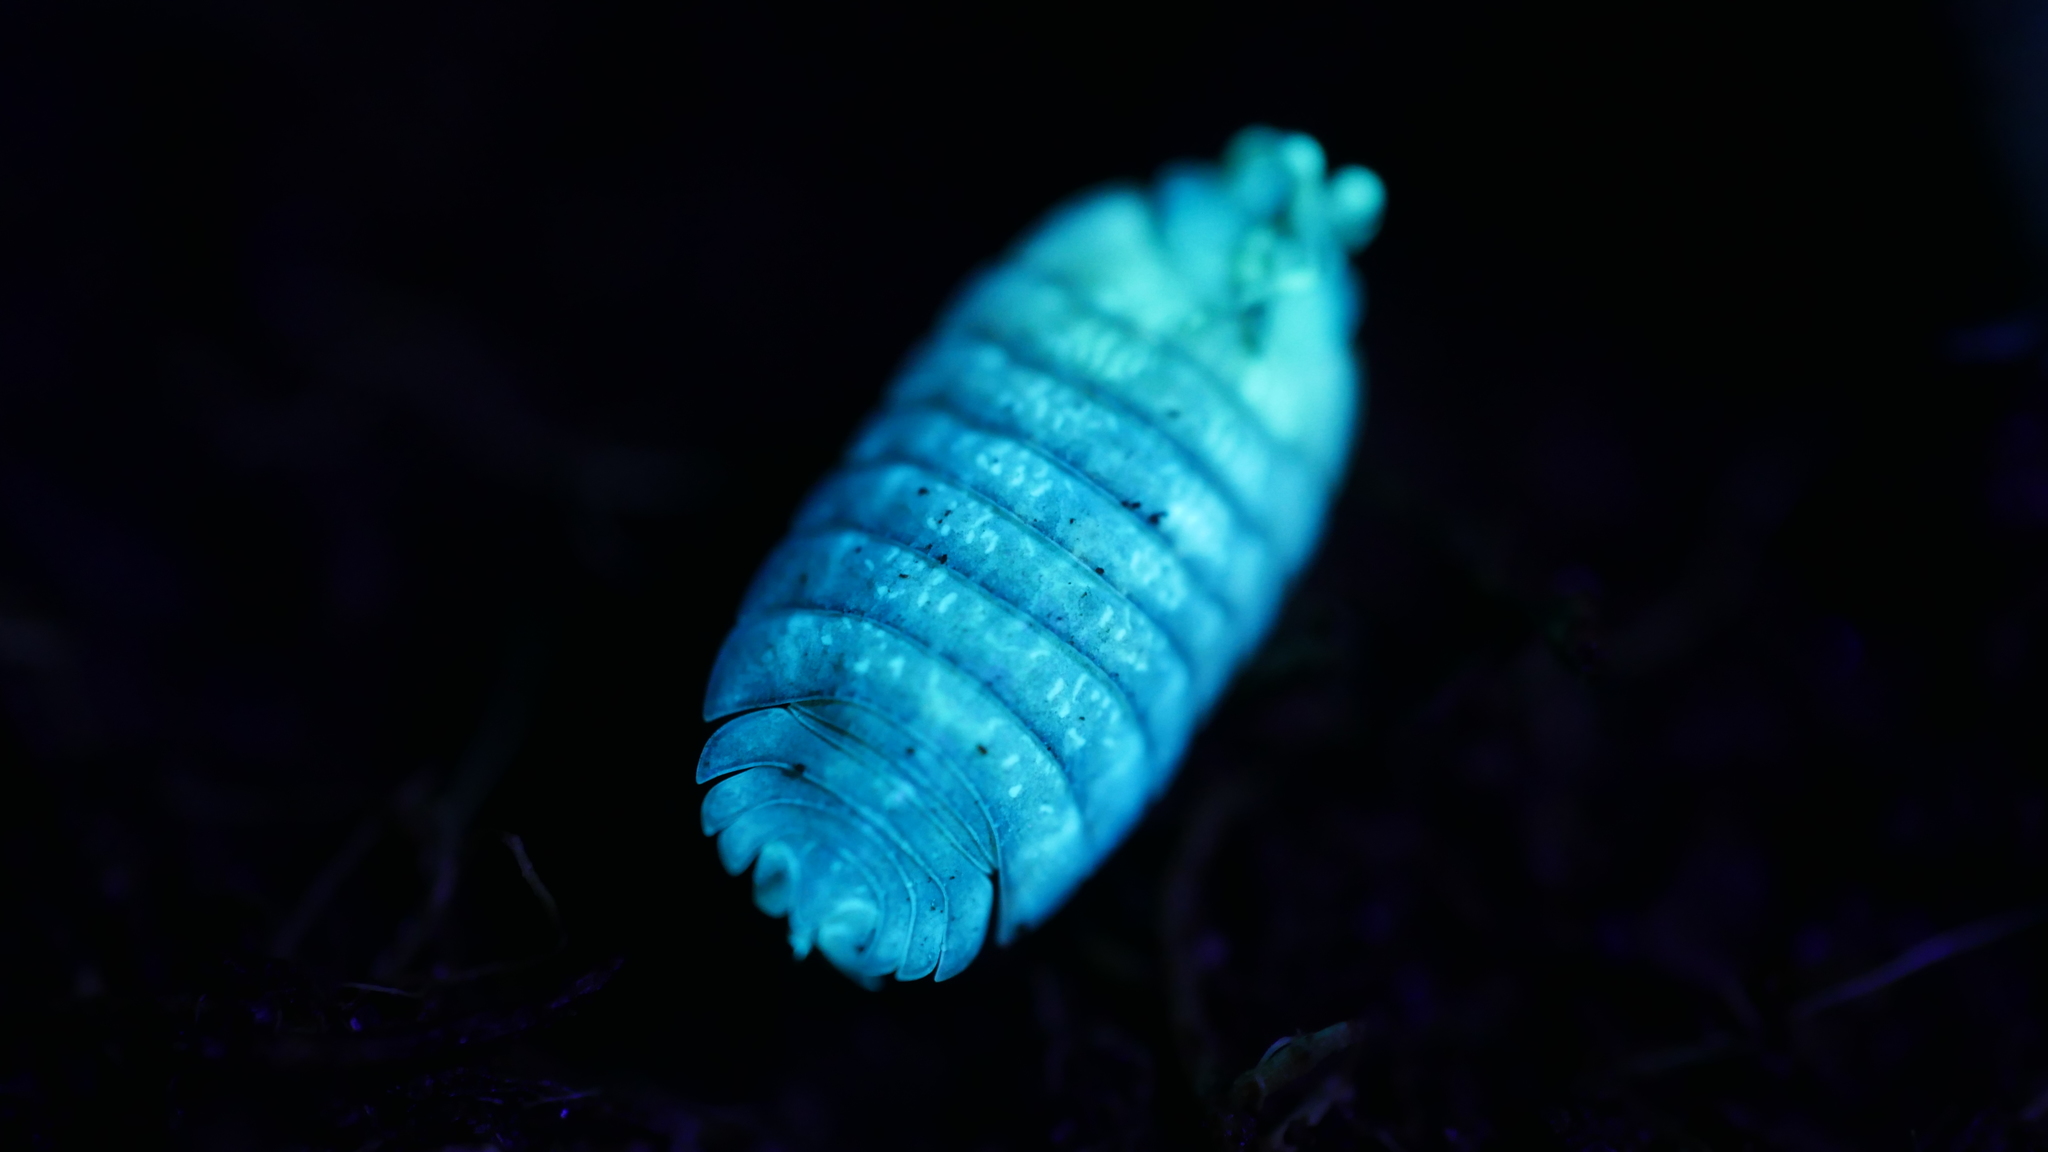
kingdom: Animalia
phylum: Arthropoda
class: Malacostraca
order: Isopoda
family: Porcellionidae
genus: Porcellio
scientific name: Porcellio scaber
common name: Common rough woodlouse
